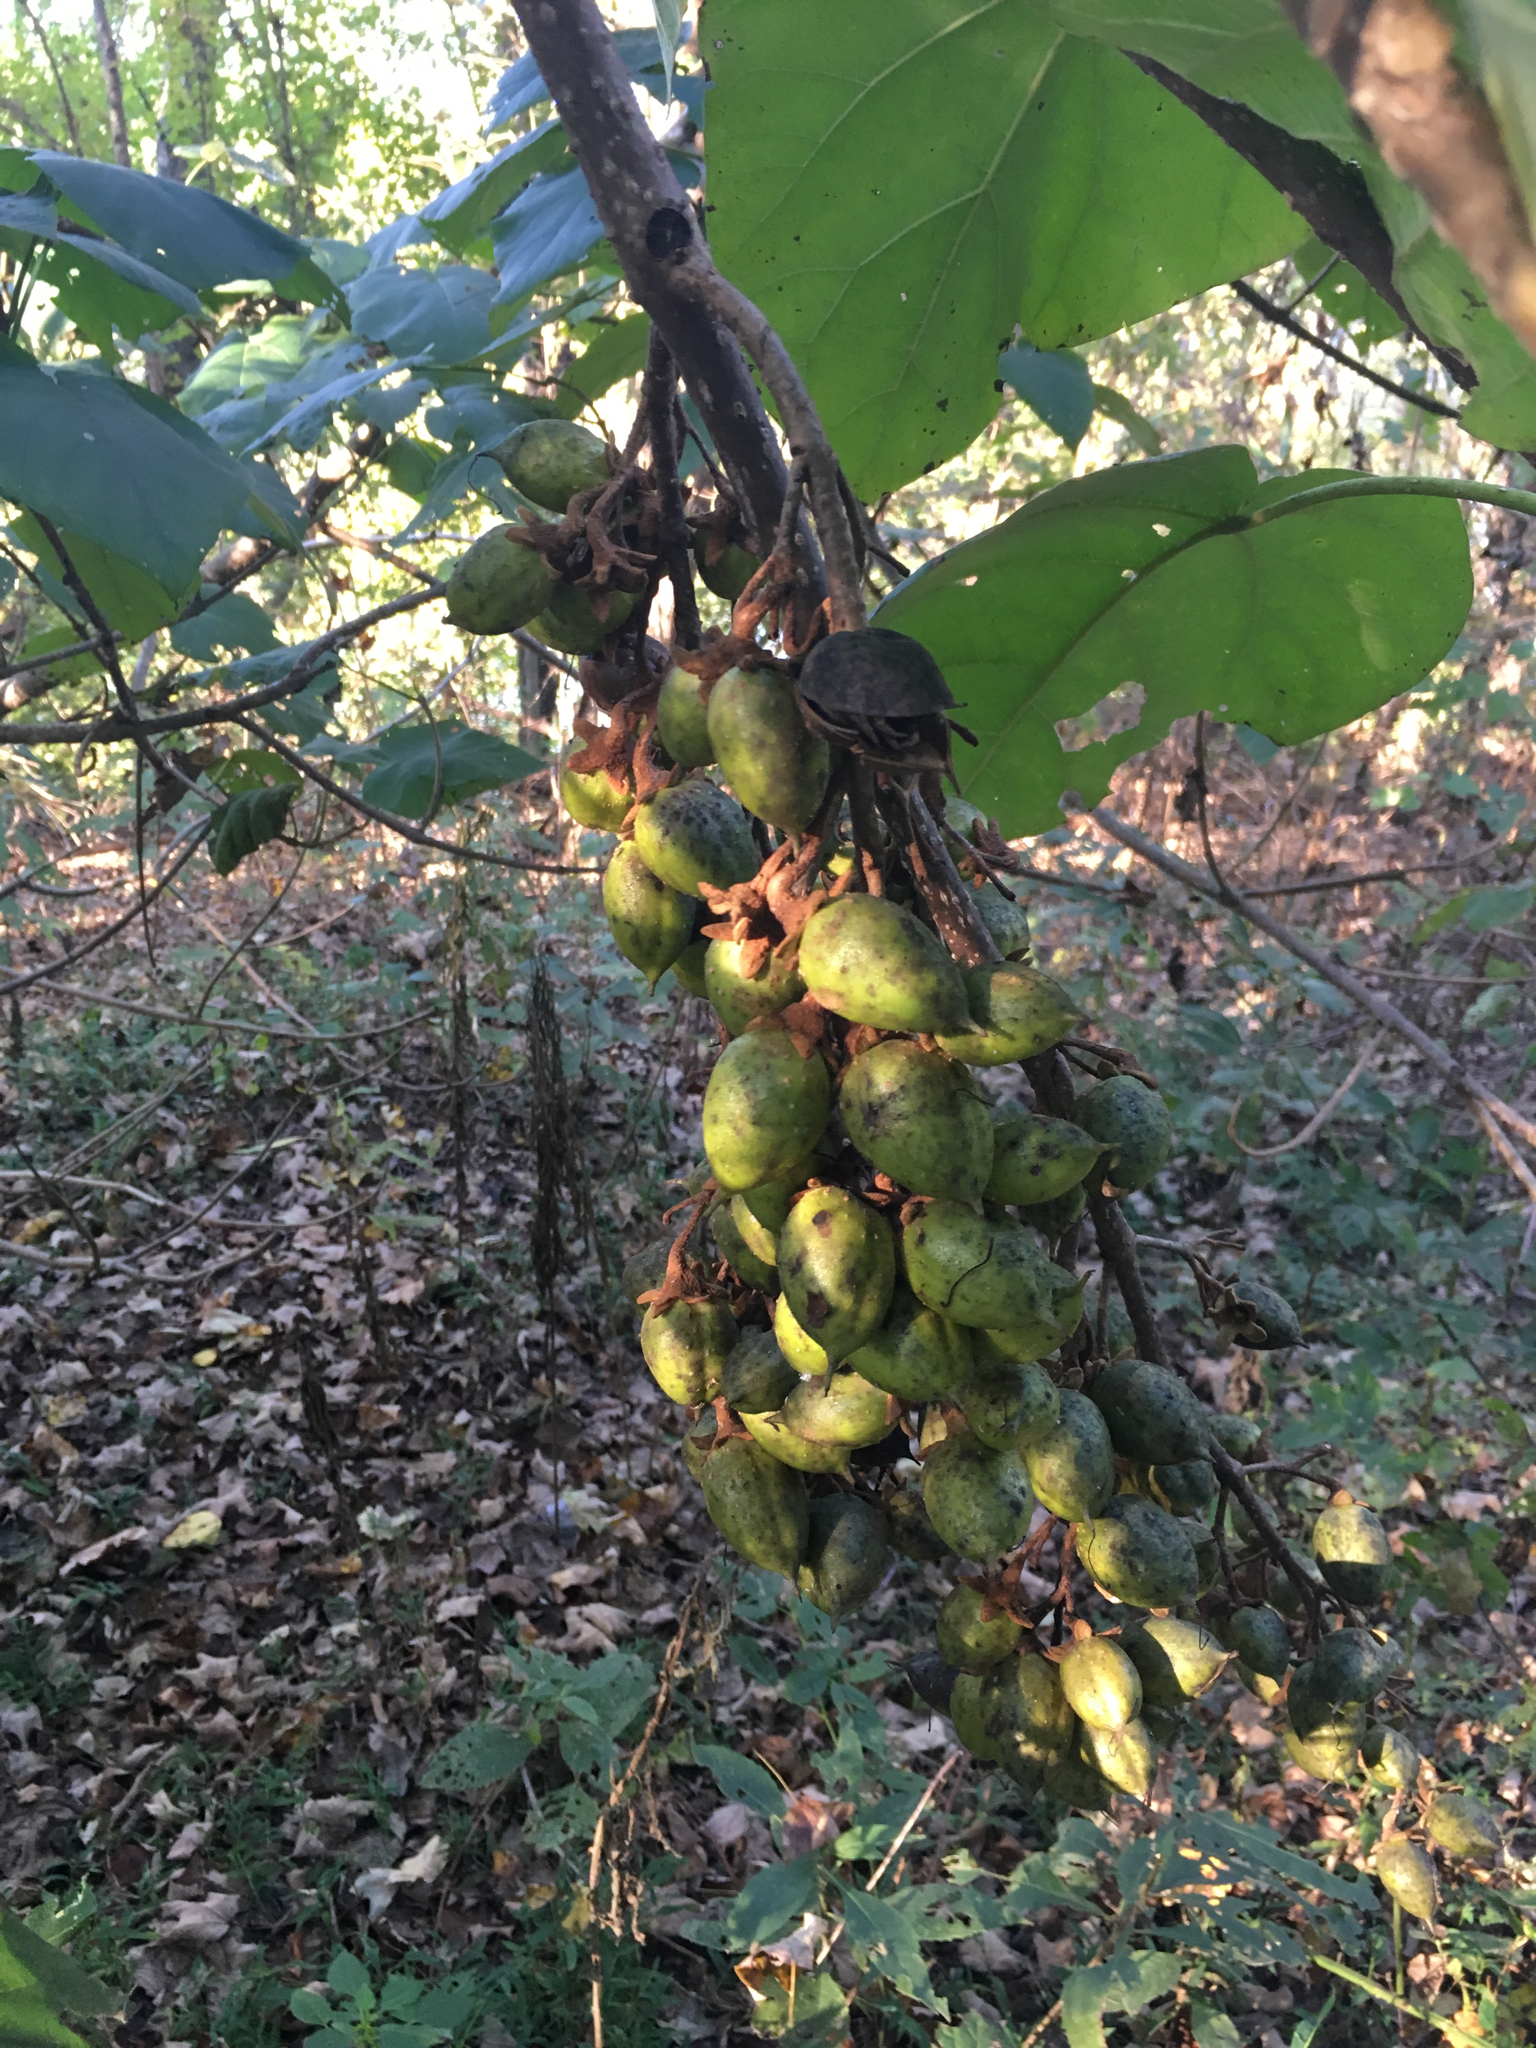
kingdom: Plantae
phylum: Tracheophyta
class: Magnoliopsida
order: Lamiales
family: Paulowniaceae
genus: Paulownia
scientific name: Paulownia tomentosa
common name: Foxglove-tree
